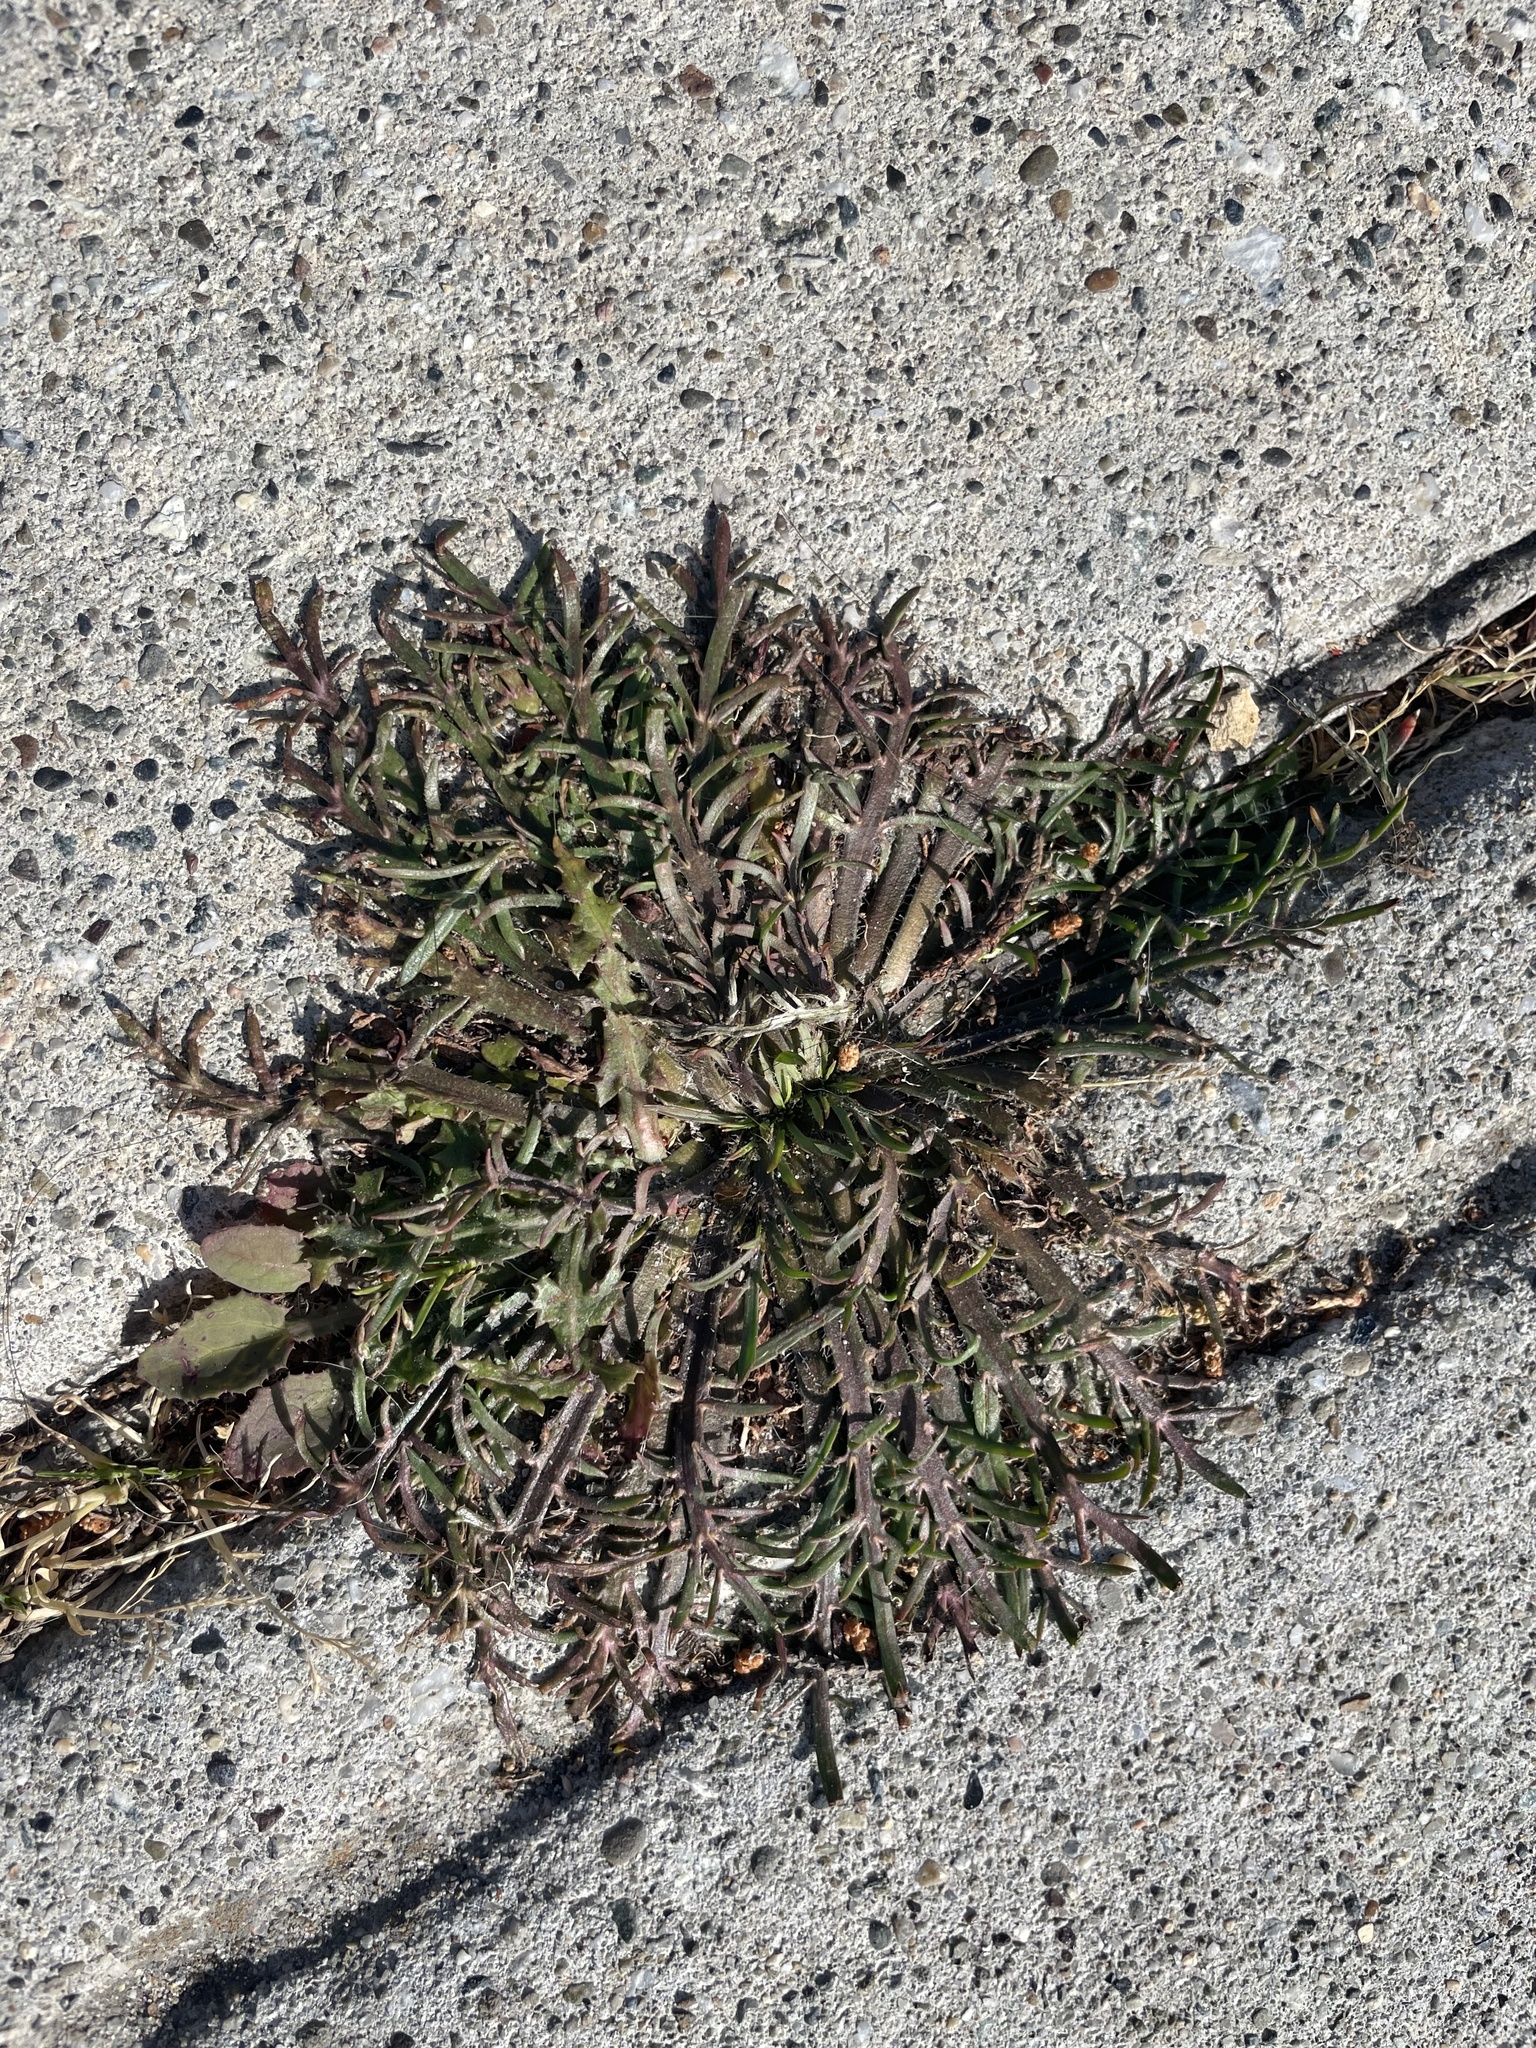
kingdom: Plantae
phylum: Tracheophyta
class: Magnoliopsida
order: Lamiales
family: Plantaginaceae
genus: Plantago
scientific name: Plantago coronopus
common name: Buck's-horn plantain
